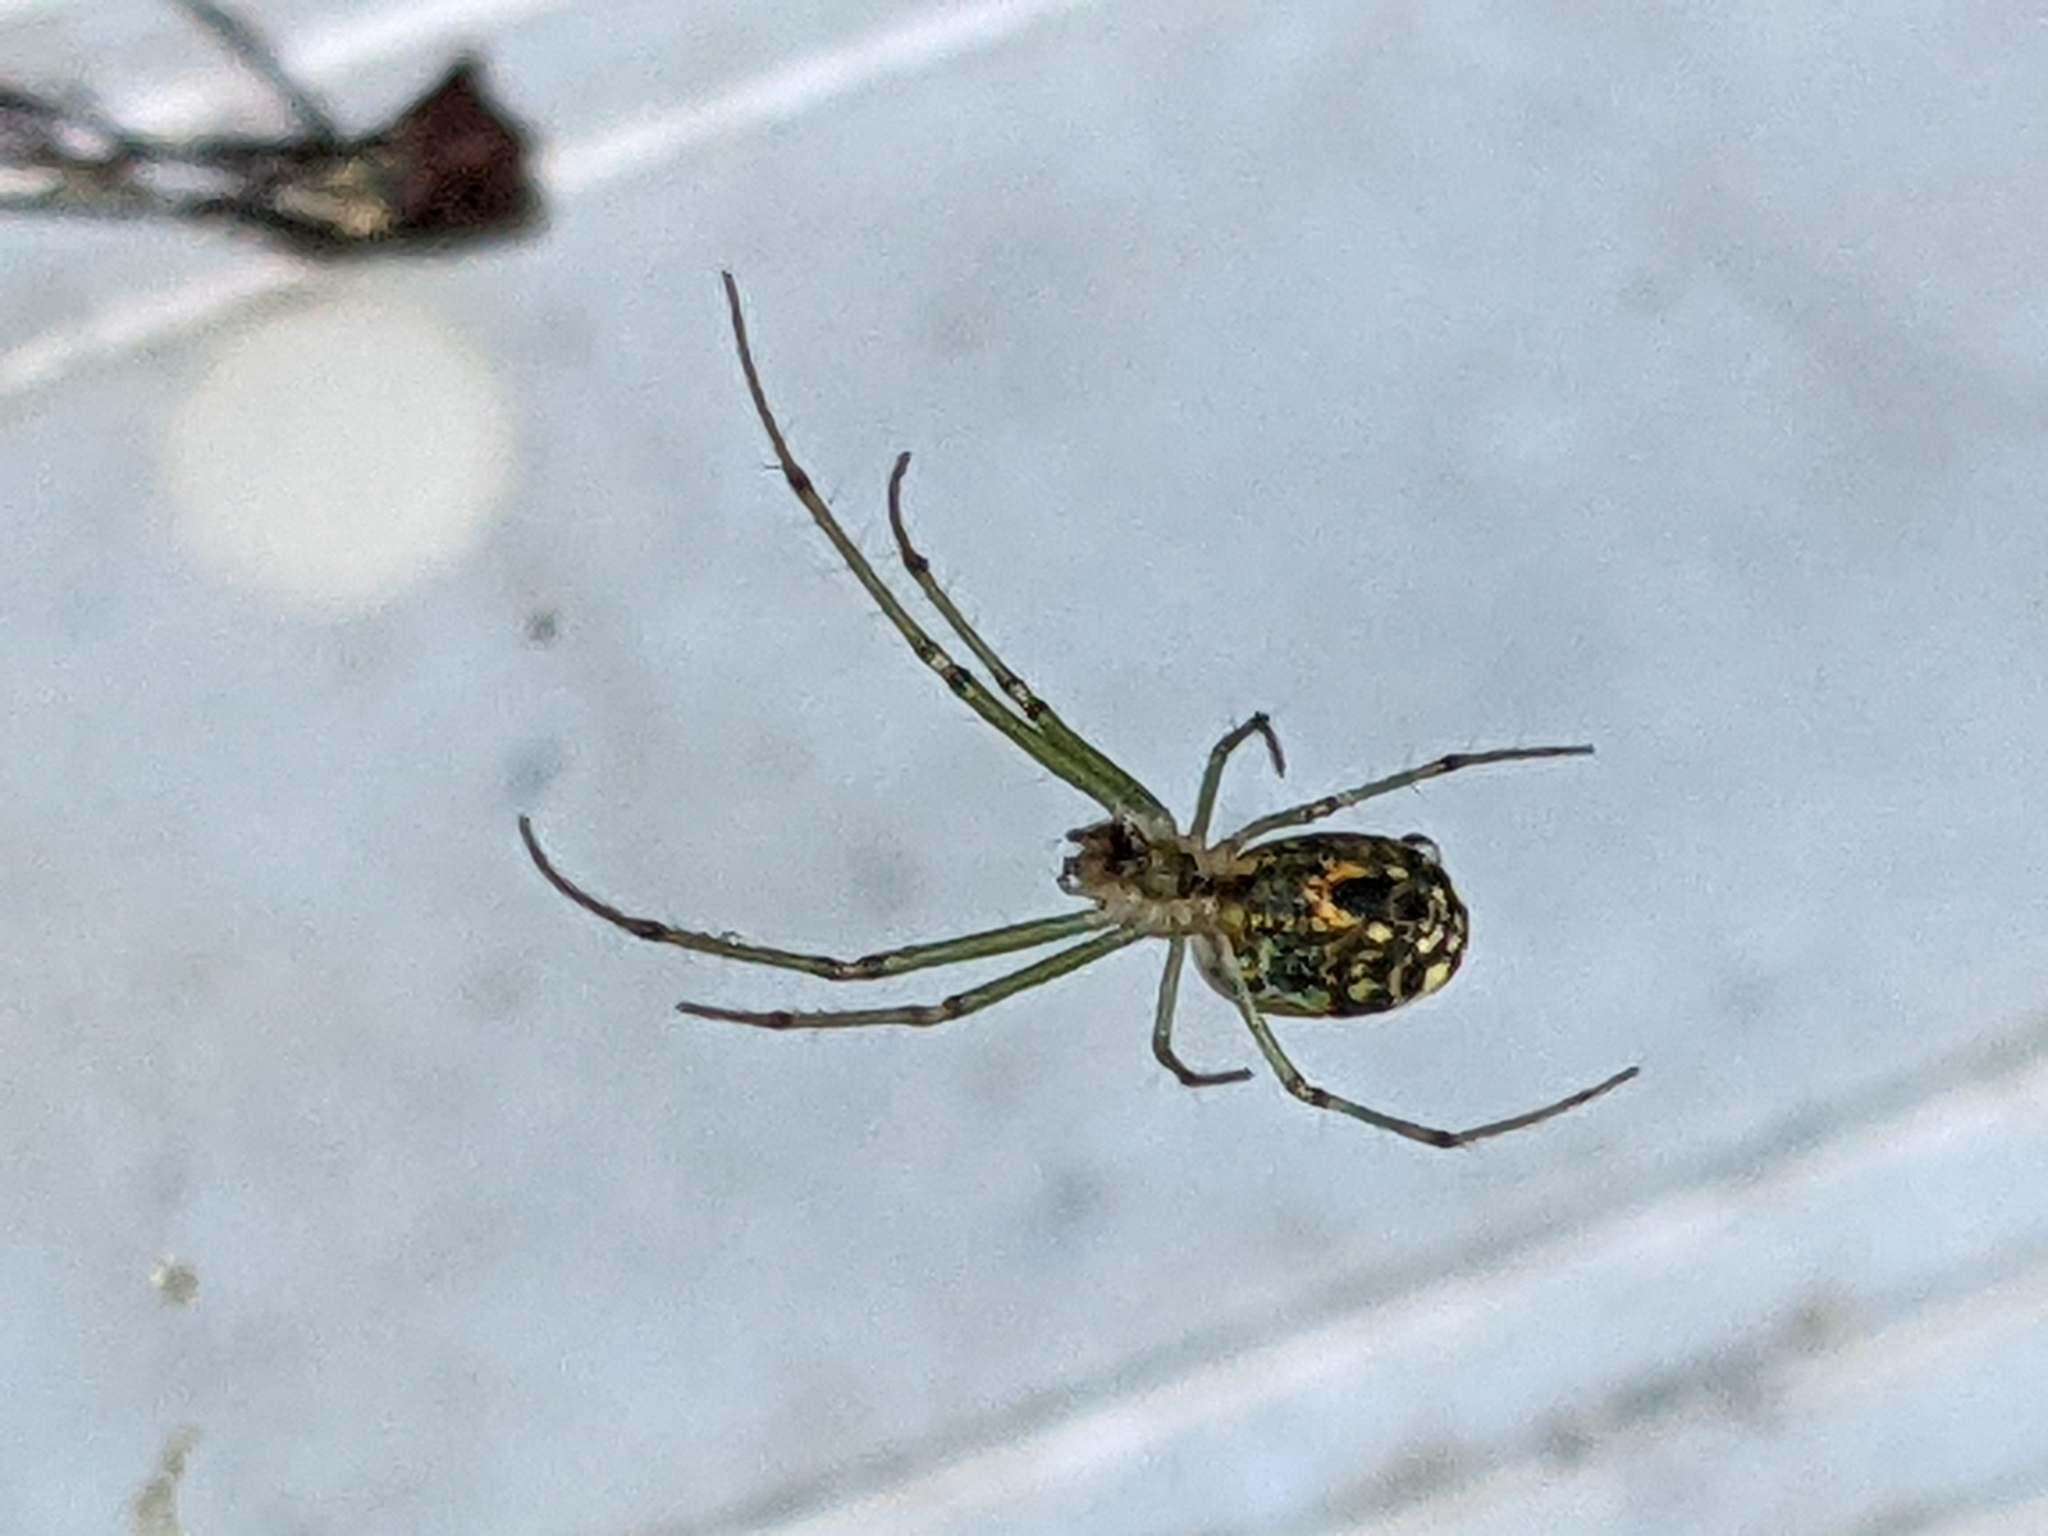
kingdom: Animalia
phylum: Arthropoda
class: Arachnida
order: Araneae
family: Tetragnathidae
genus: Leucauge
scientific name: Leucauge venusta
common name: Longjawed orb weavers
